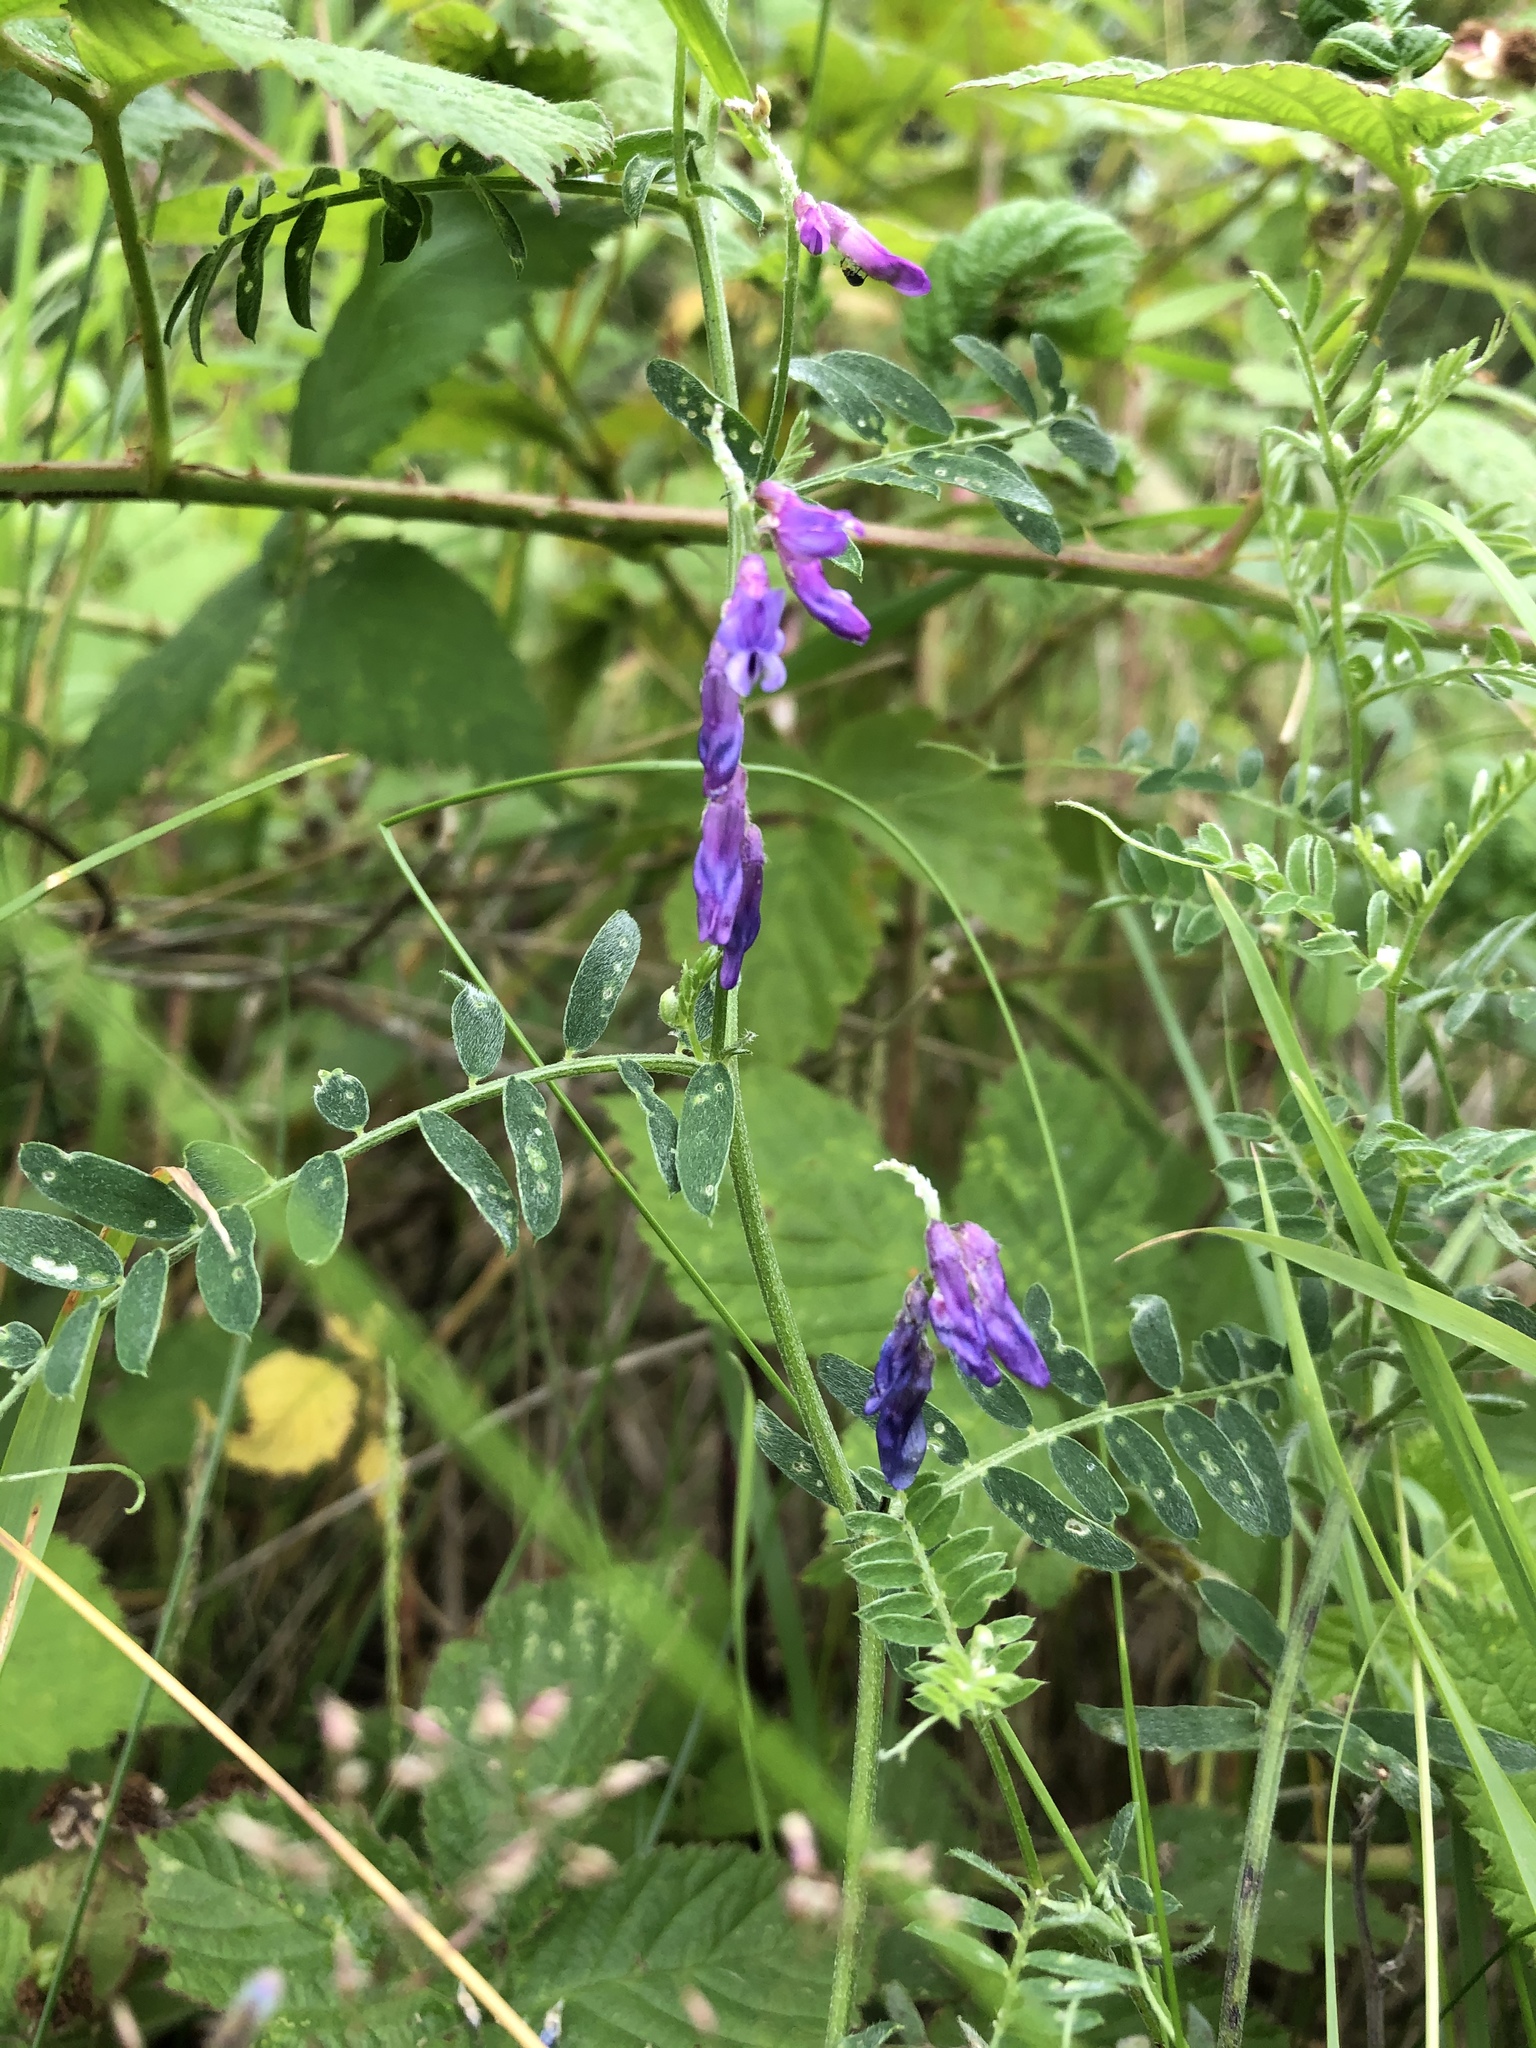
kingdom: Plantae
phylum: Tracheophyta
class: Magnoliopsida
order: Fabales
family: Fabaceae
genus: Vicia
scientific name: Vicia cracca
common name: Bird vetch
